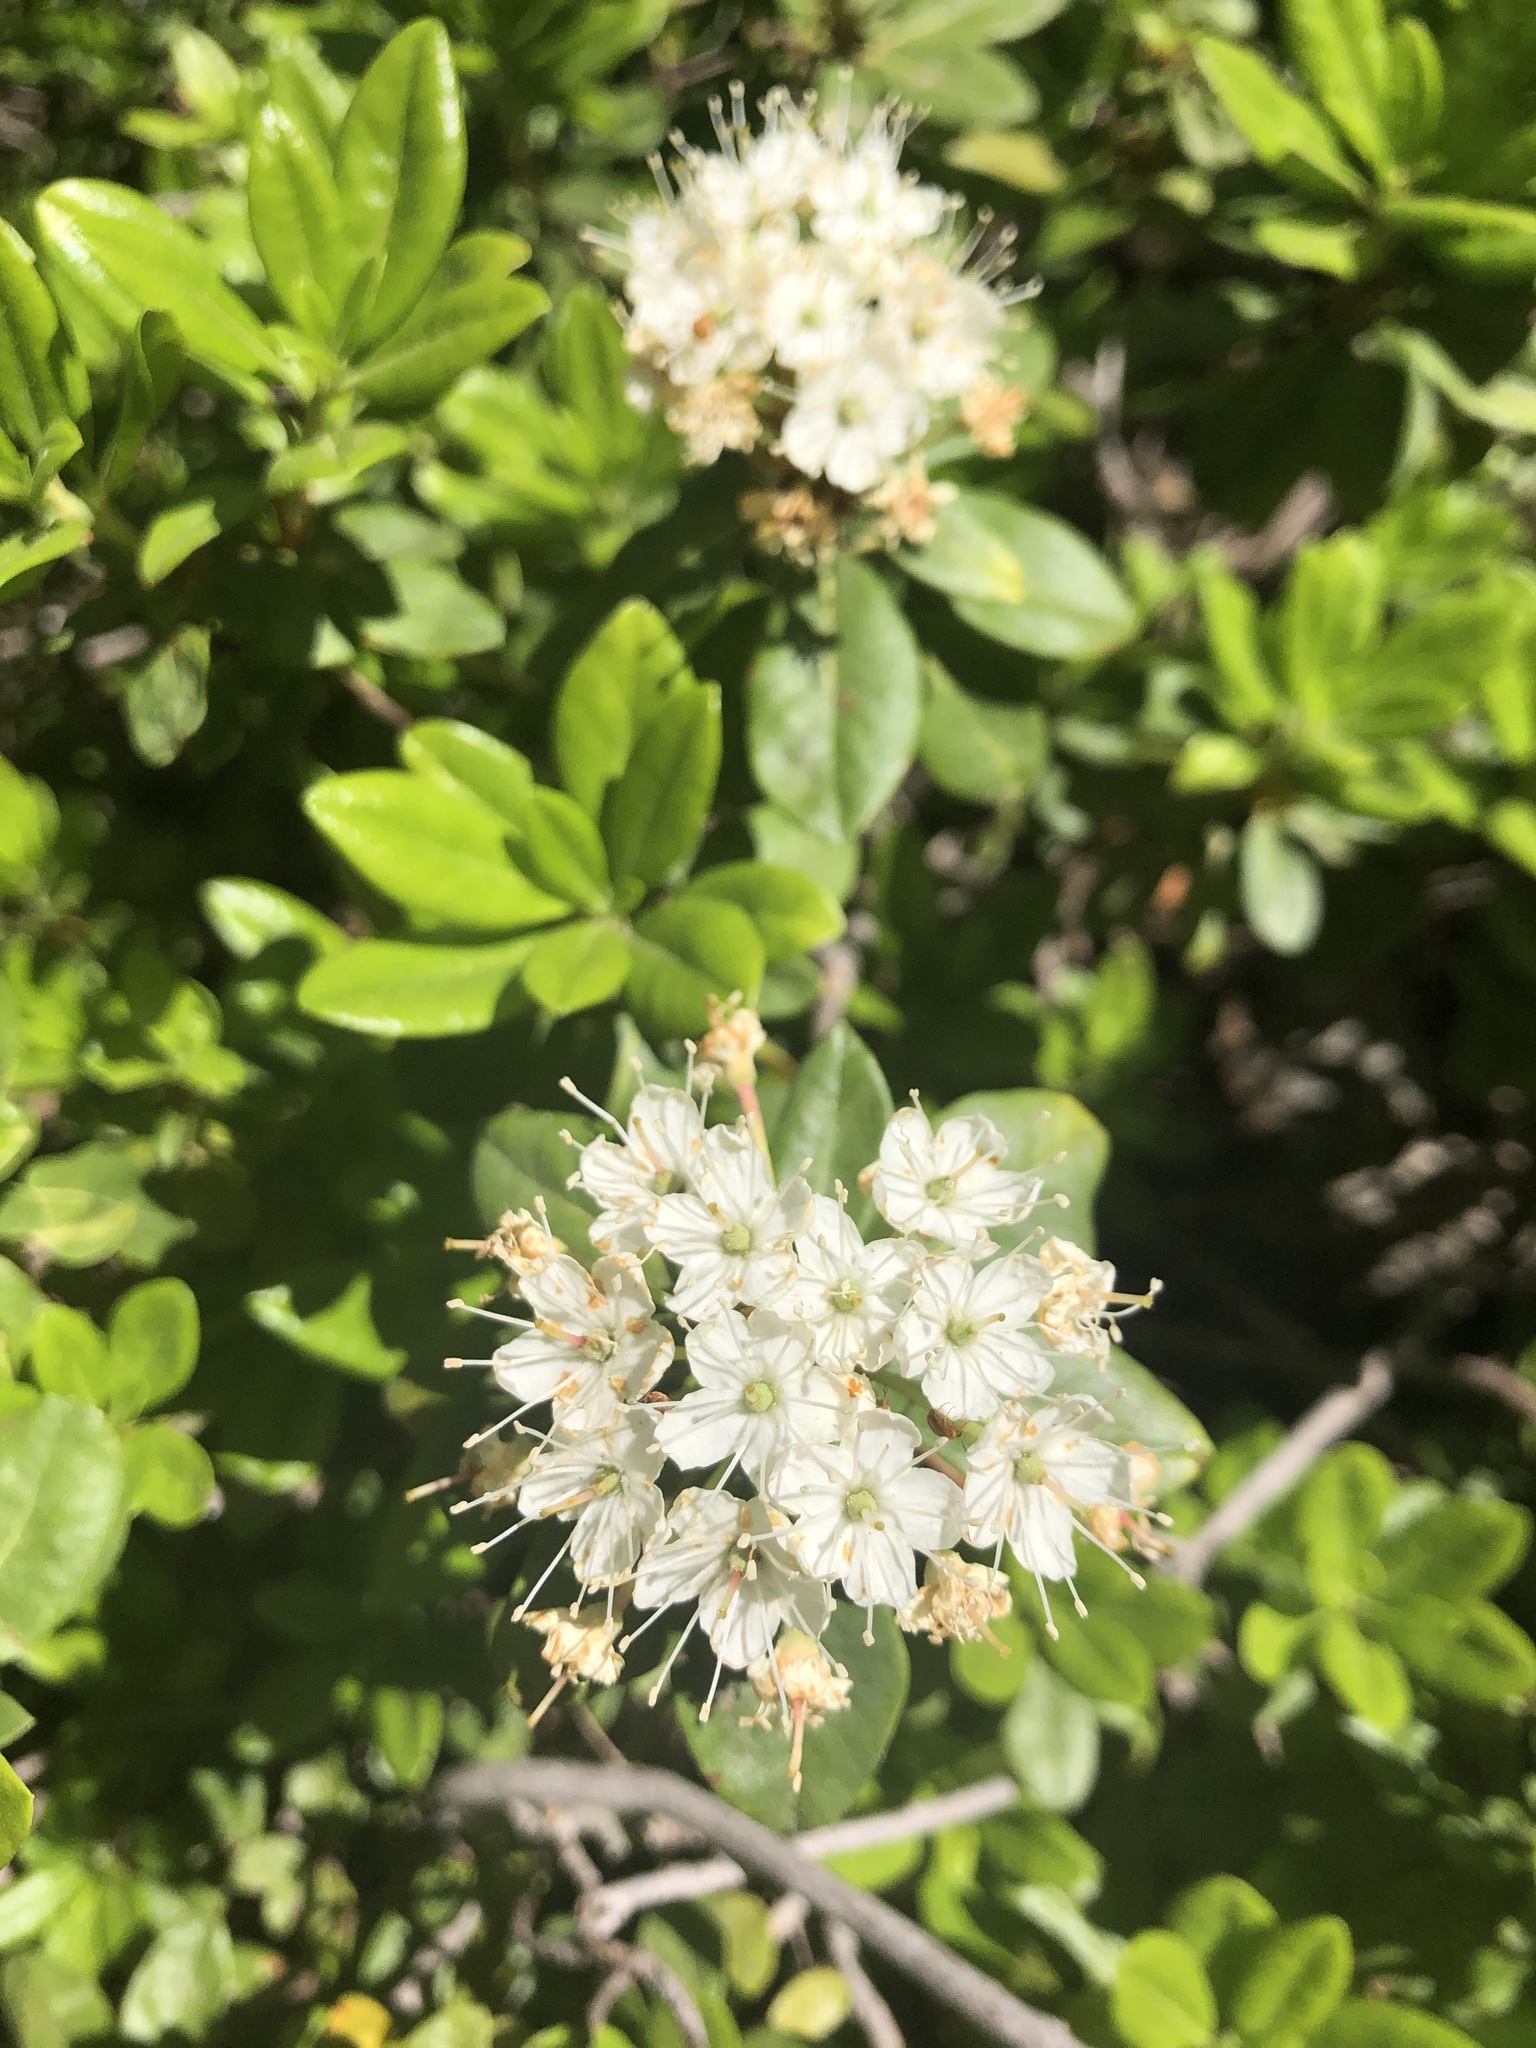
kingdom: Plantae
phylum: Tracheophyta
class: Magnoliopsida
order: Ericales
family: Ericaceae
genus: Rhododendron
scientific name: Rhododendron columbianum
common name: Western labrador tea
